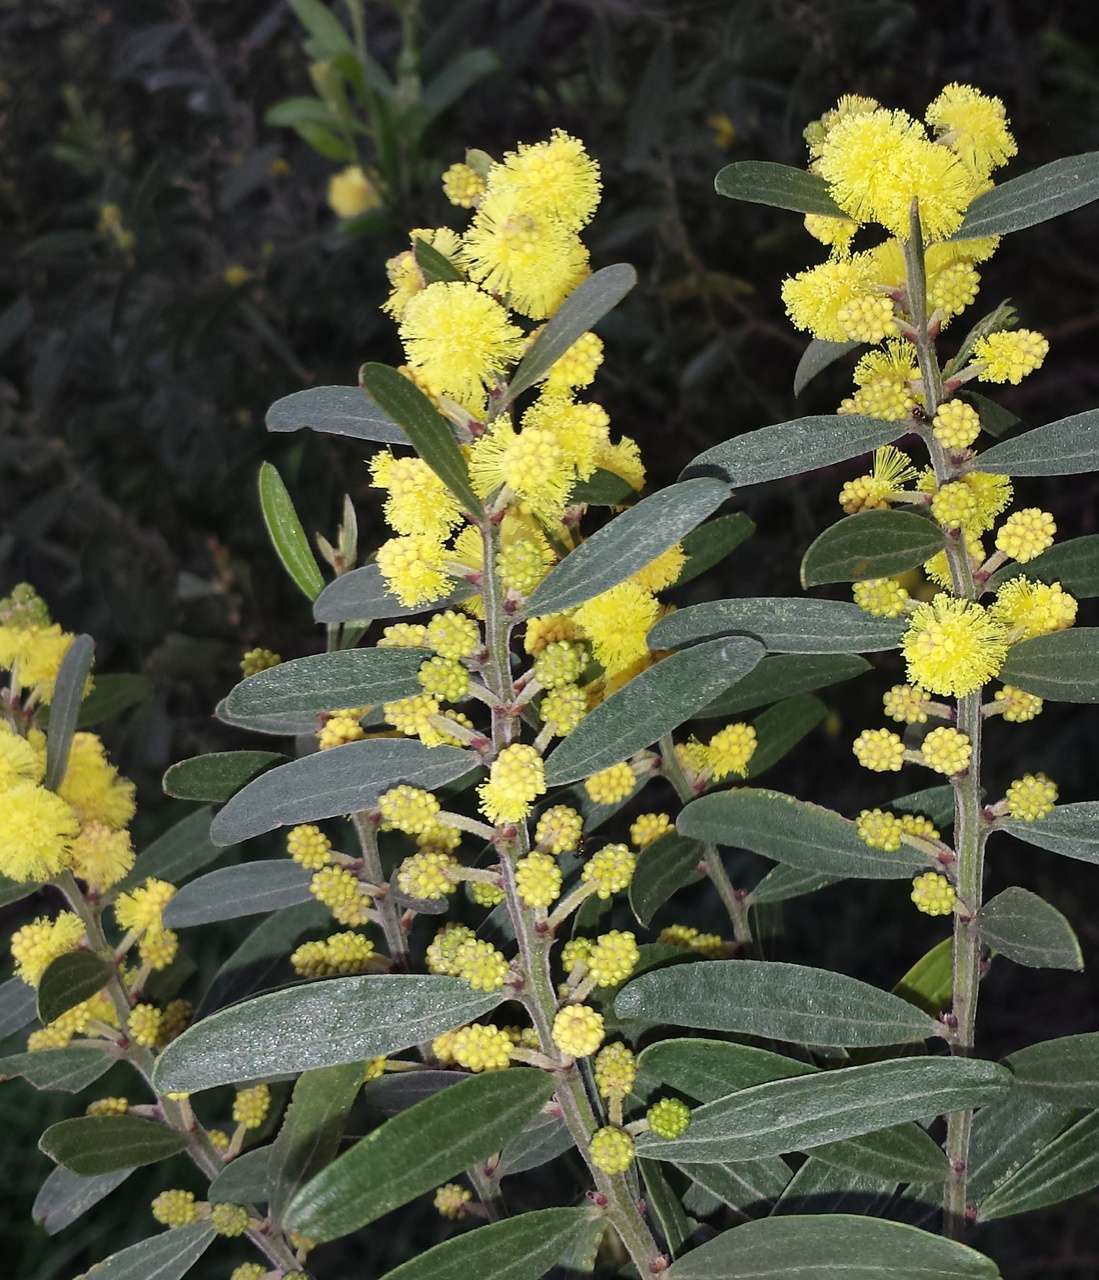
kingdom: Plantae
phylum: Tracheophyta
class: Magnoliopsida
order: Fabales
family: Fabaceae
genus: Acacia
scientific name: Acacia verniciflua
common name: Varnish wattle
